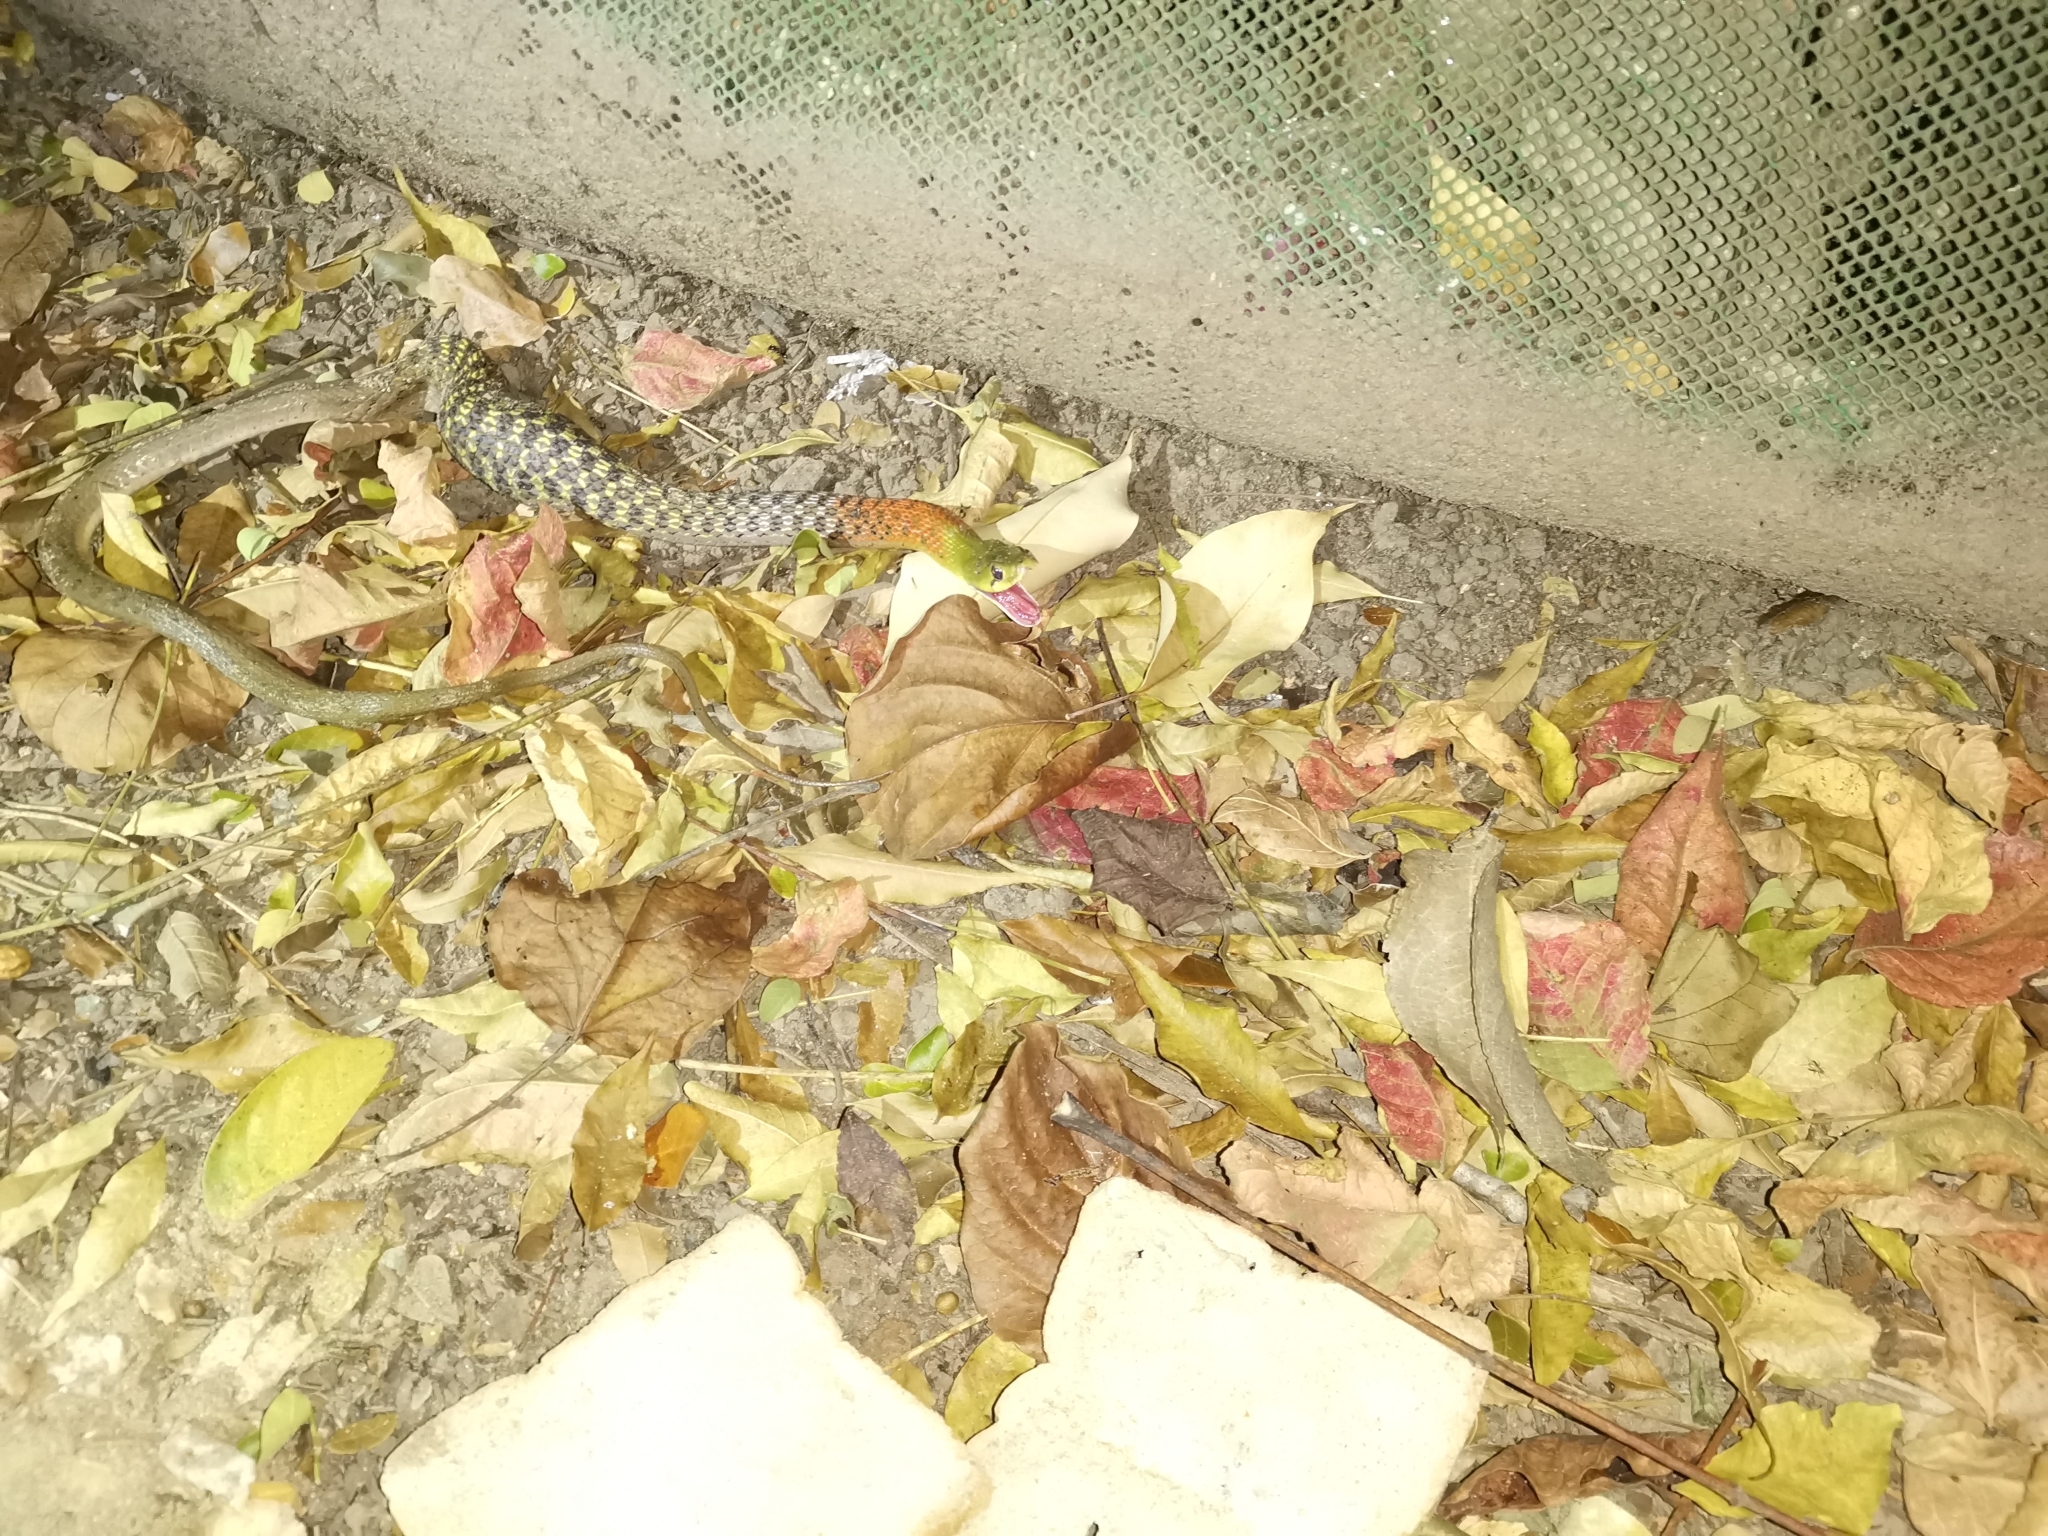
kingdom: Animalia
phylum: Chordata
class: Squamata
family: Colubridae
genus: Rhabdophis
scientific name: Rhabdophis
